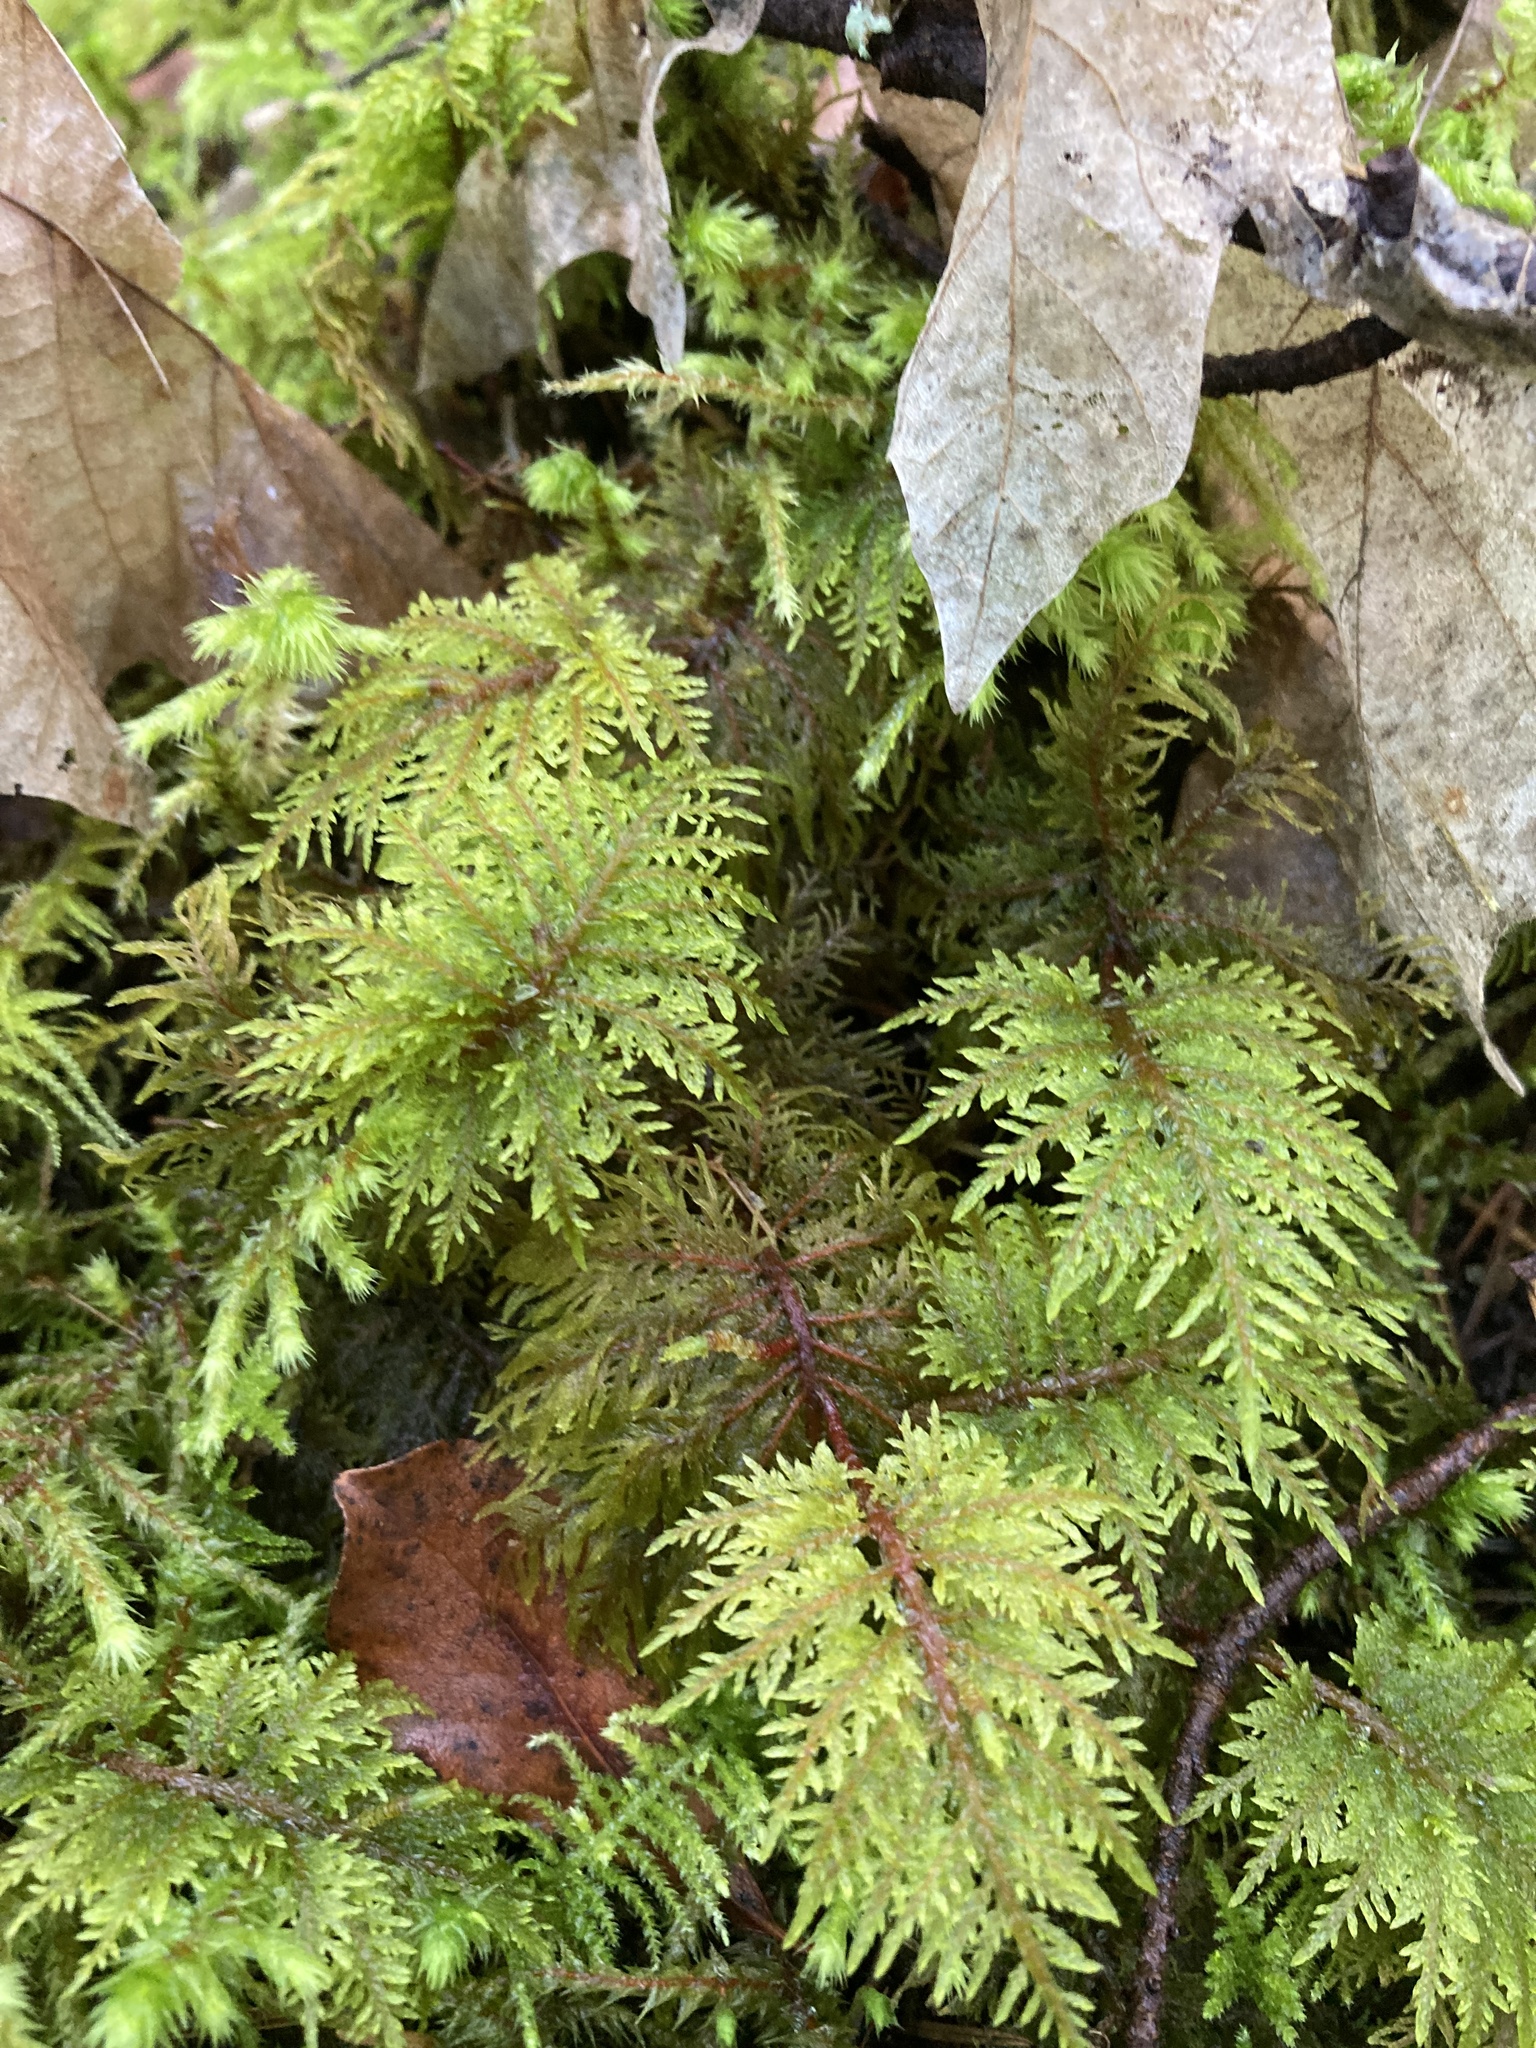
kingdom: Plantae
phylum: Bryophyta
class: Bryopsida
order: Hypnales
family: Hylocomiaceae
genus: Hylocomium
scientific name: Hylocomium splendens
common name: Stairstep moss
